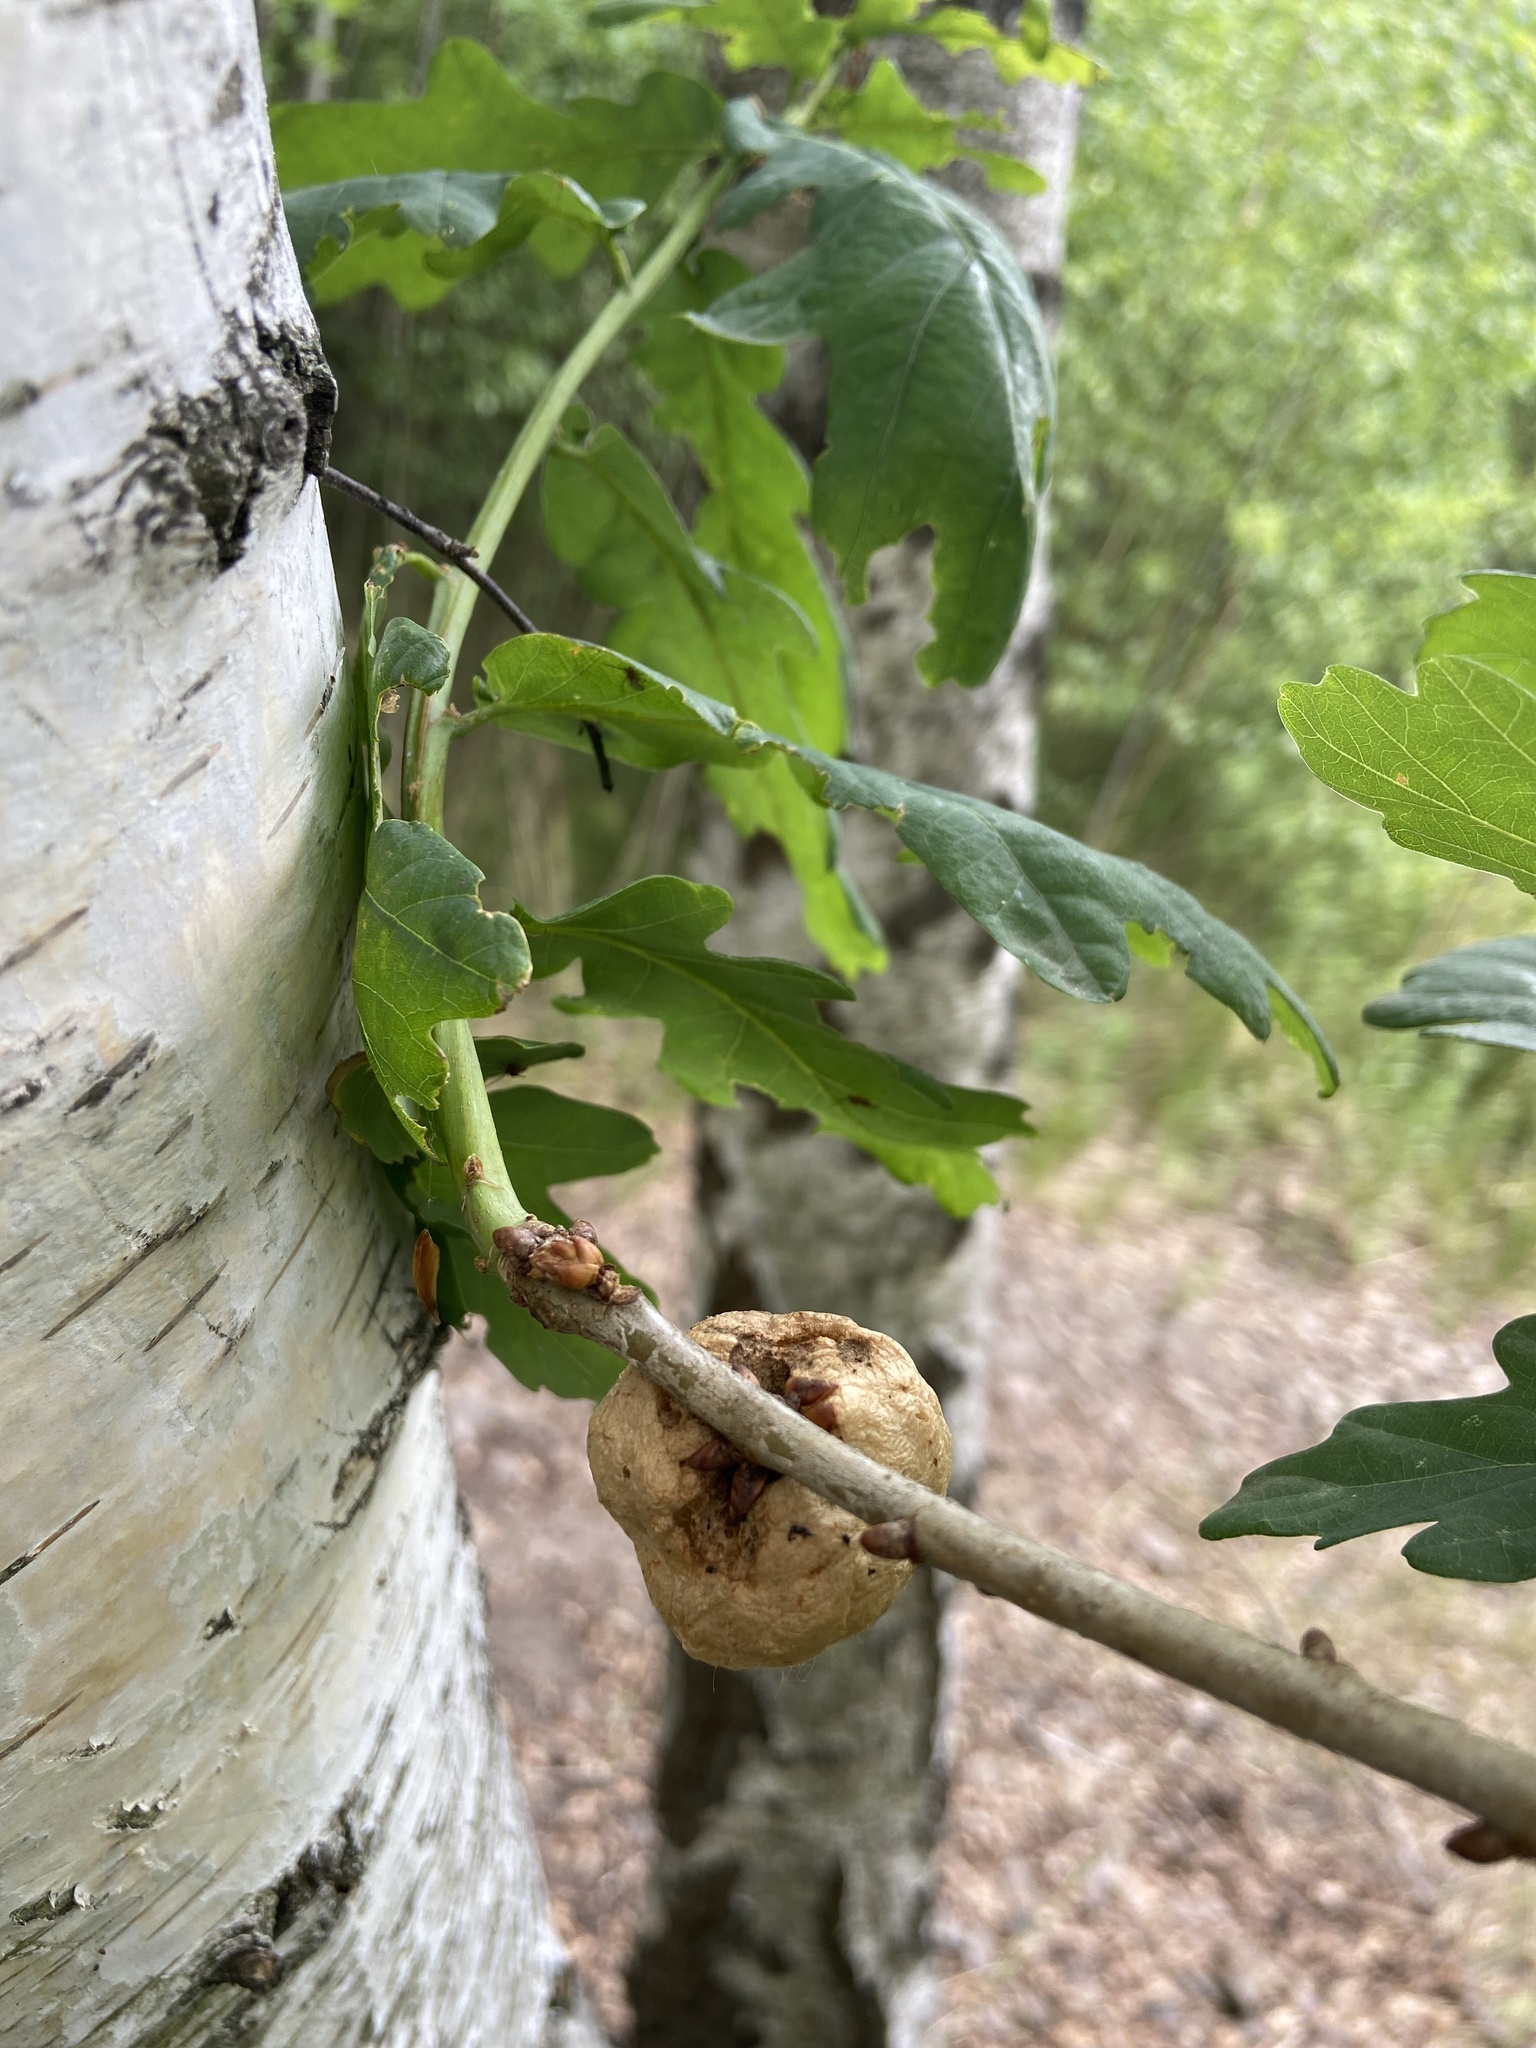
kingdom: Animalia
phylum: Arthropoda
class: Insecta
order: Hymenoptera
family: Cynipidae
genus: Biorhiza
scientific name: Biorhiza pallida
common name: Oak apple
